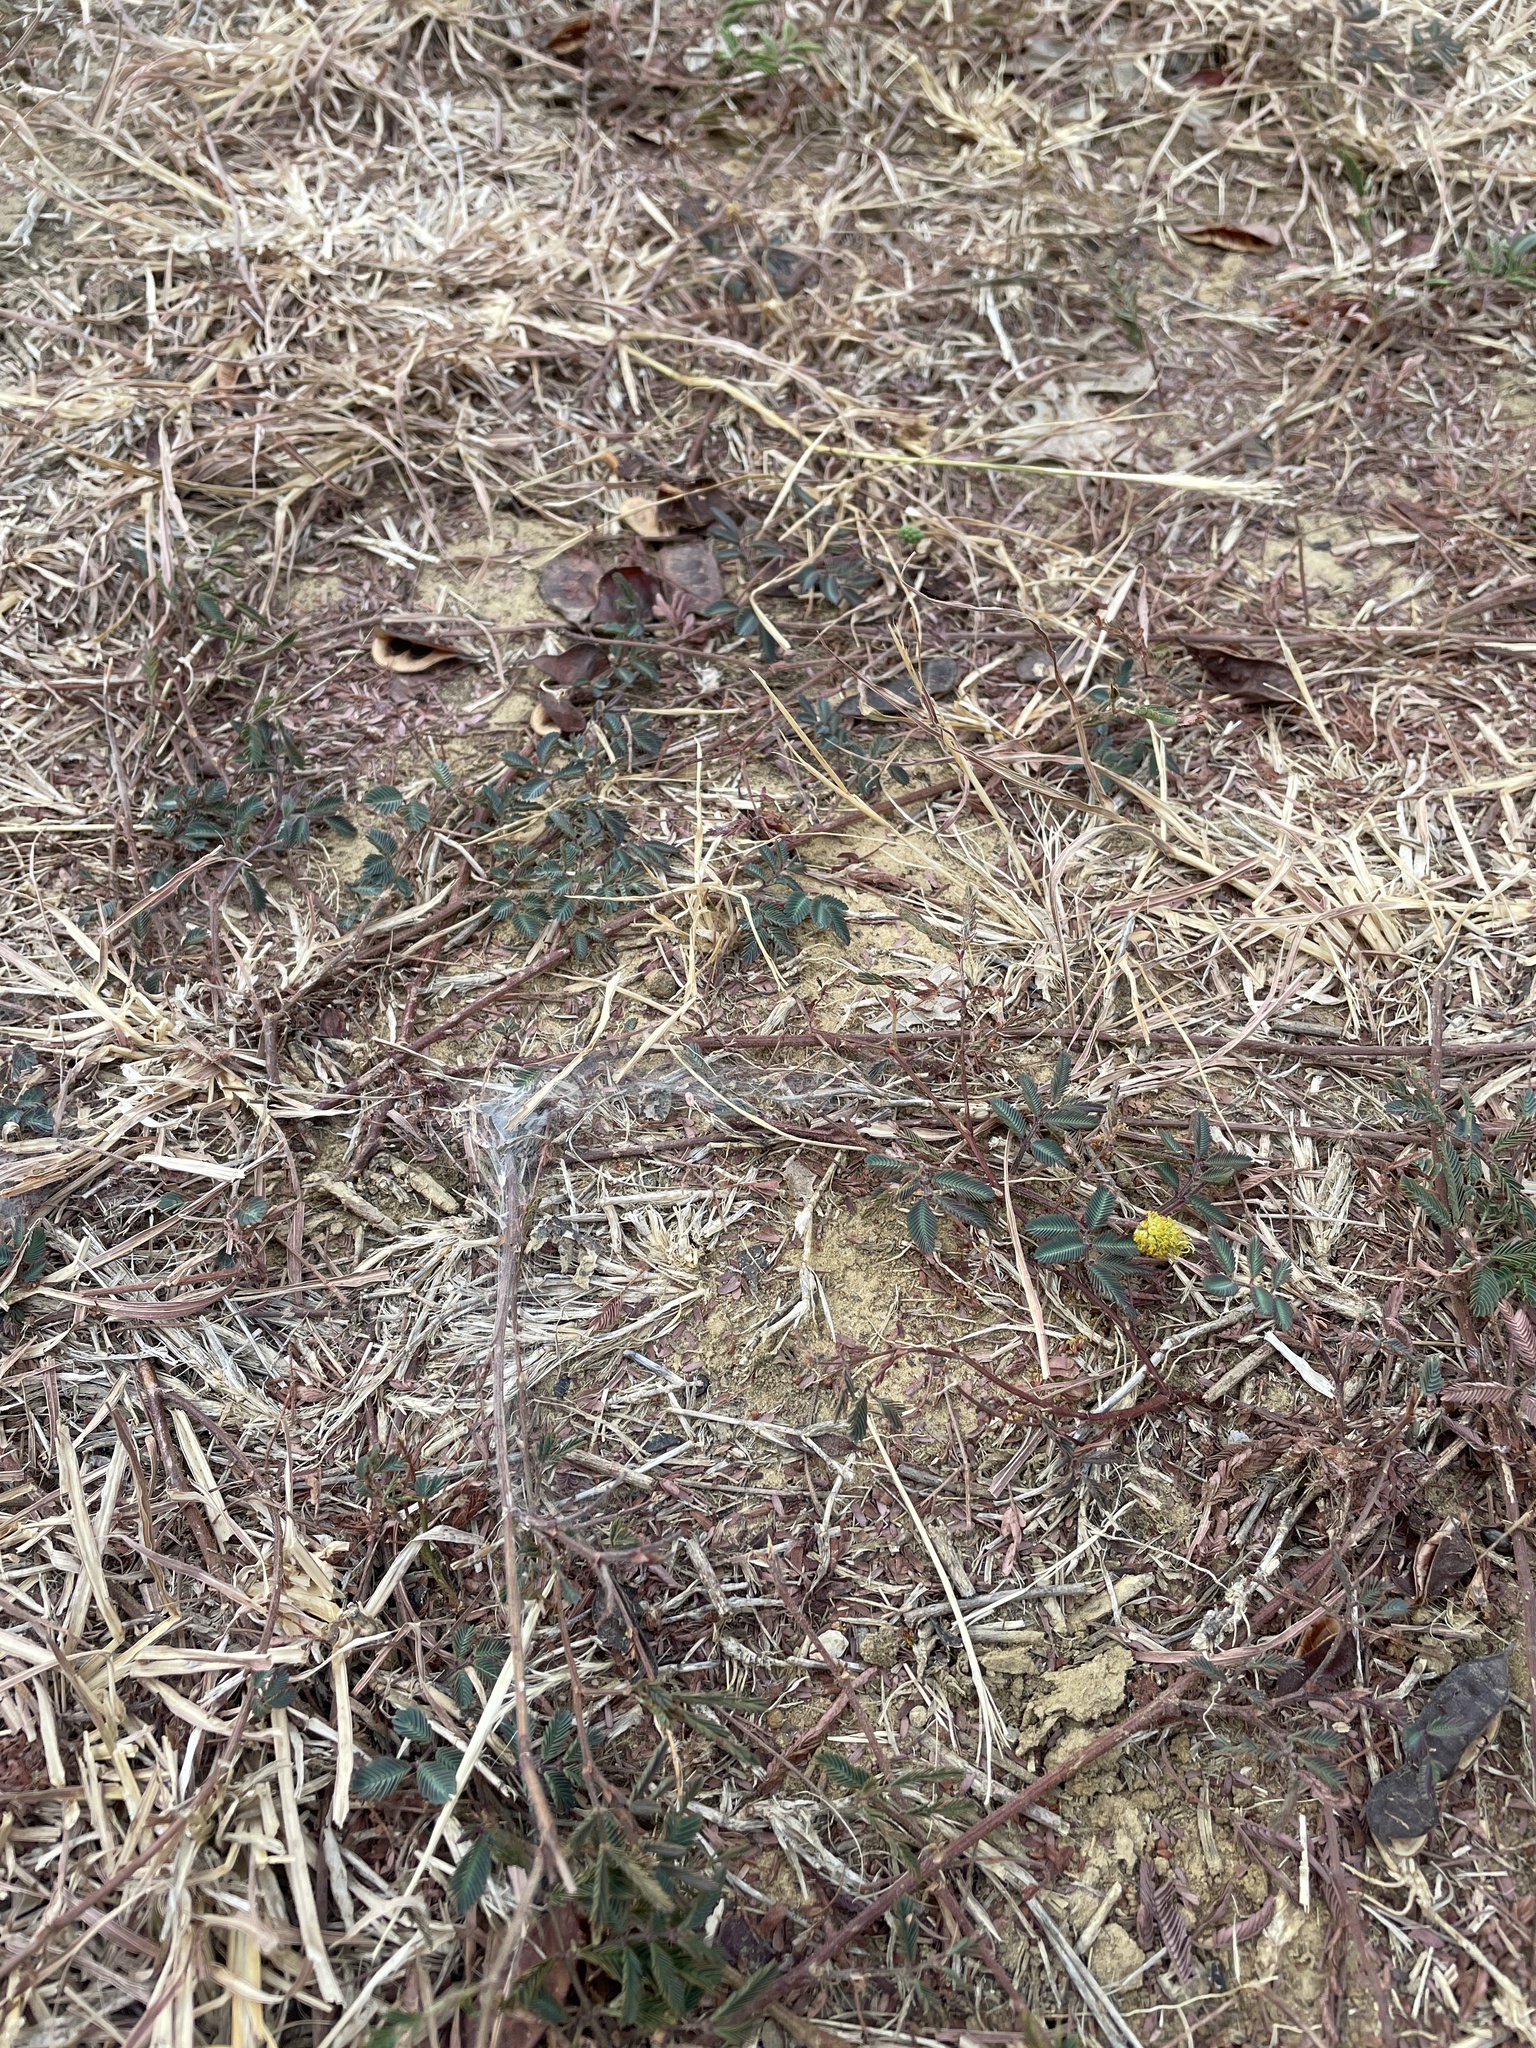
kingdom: Plantae
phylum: Tracheophyta
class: Magnoliopsida
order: Fabales
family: Fabaceae
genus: Neptunia
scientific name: Neptunia lutea
